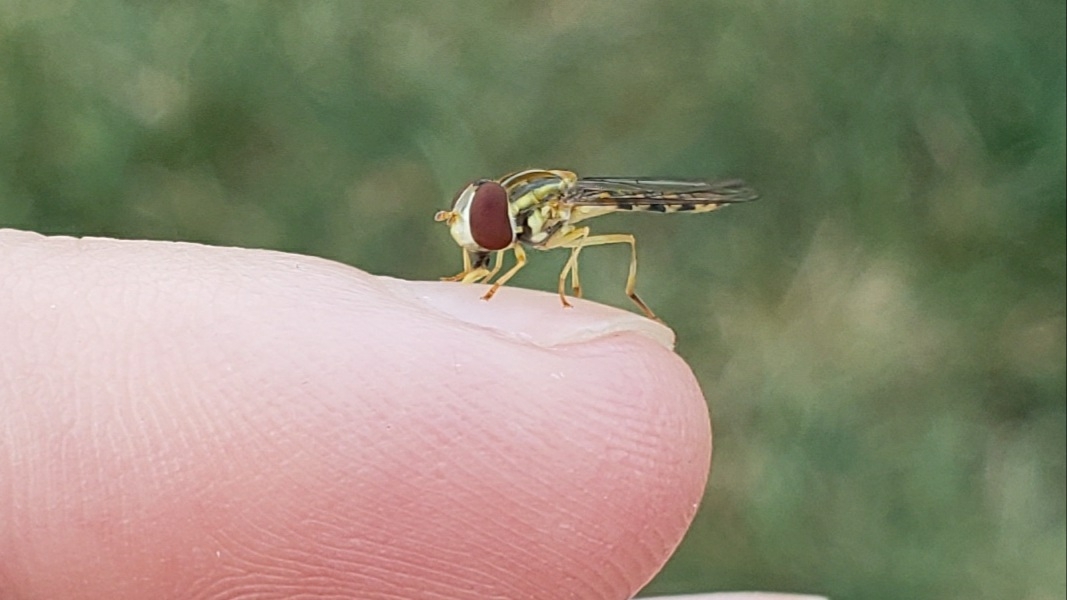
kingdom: Animalia
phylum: Arthropoda
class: Insecta
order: Diptera
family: Syrphidae
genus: Toxomerus
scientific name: Toxomerus politus
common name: Maize calligrapher
